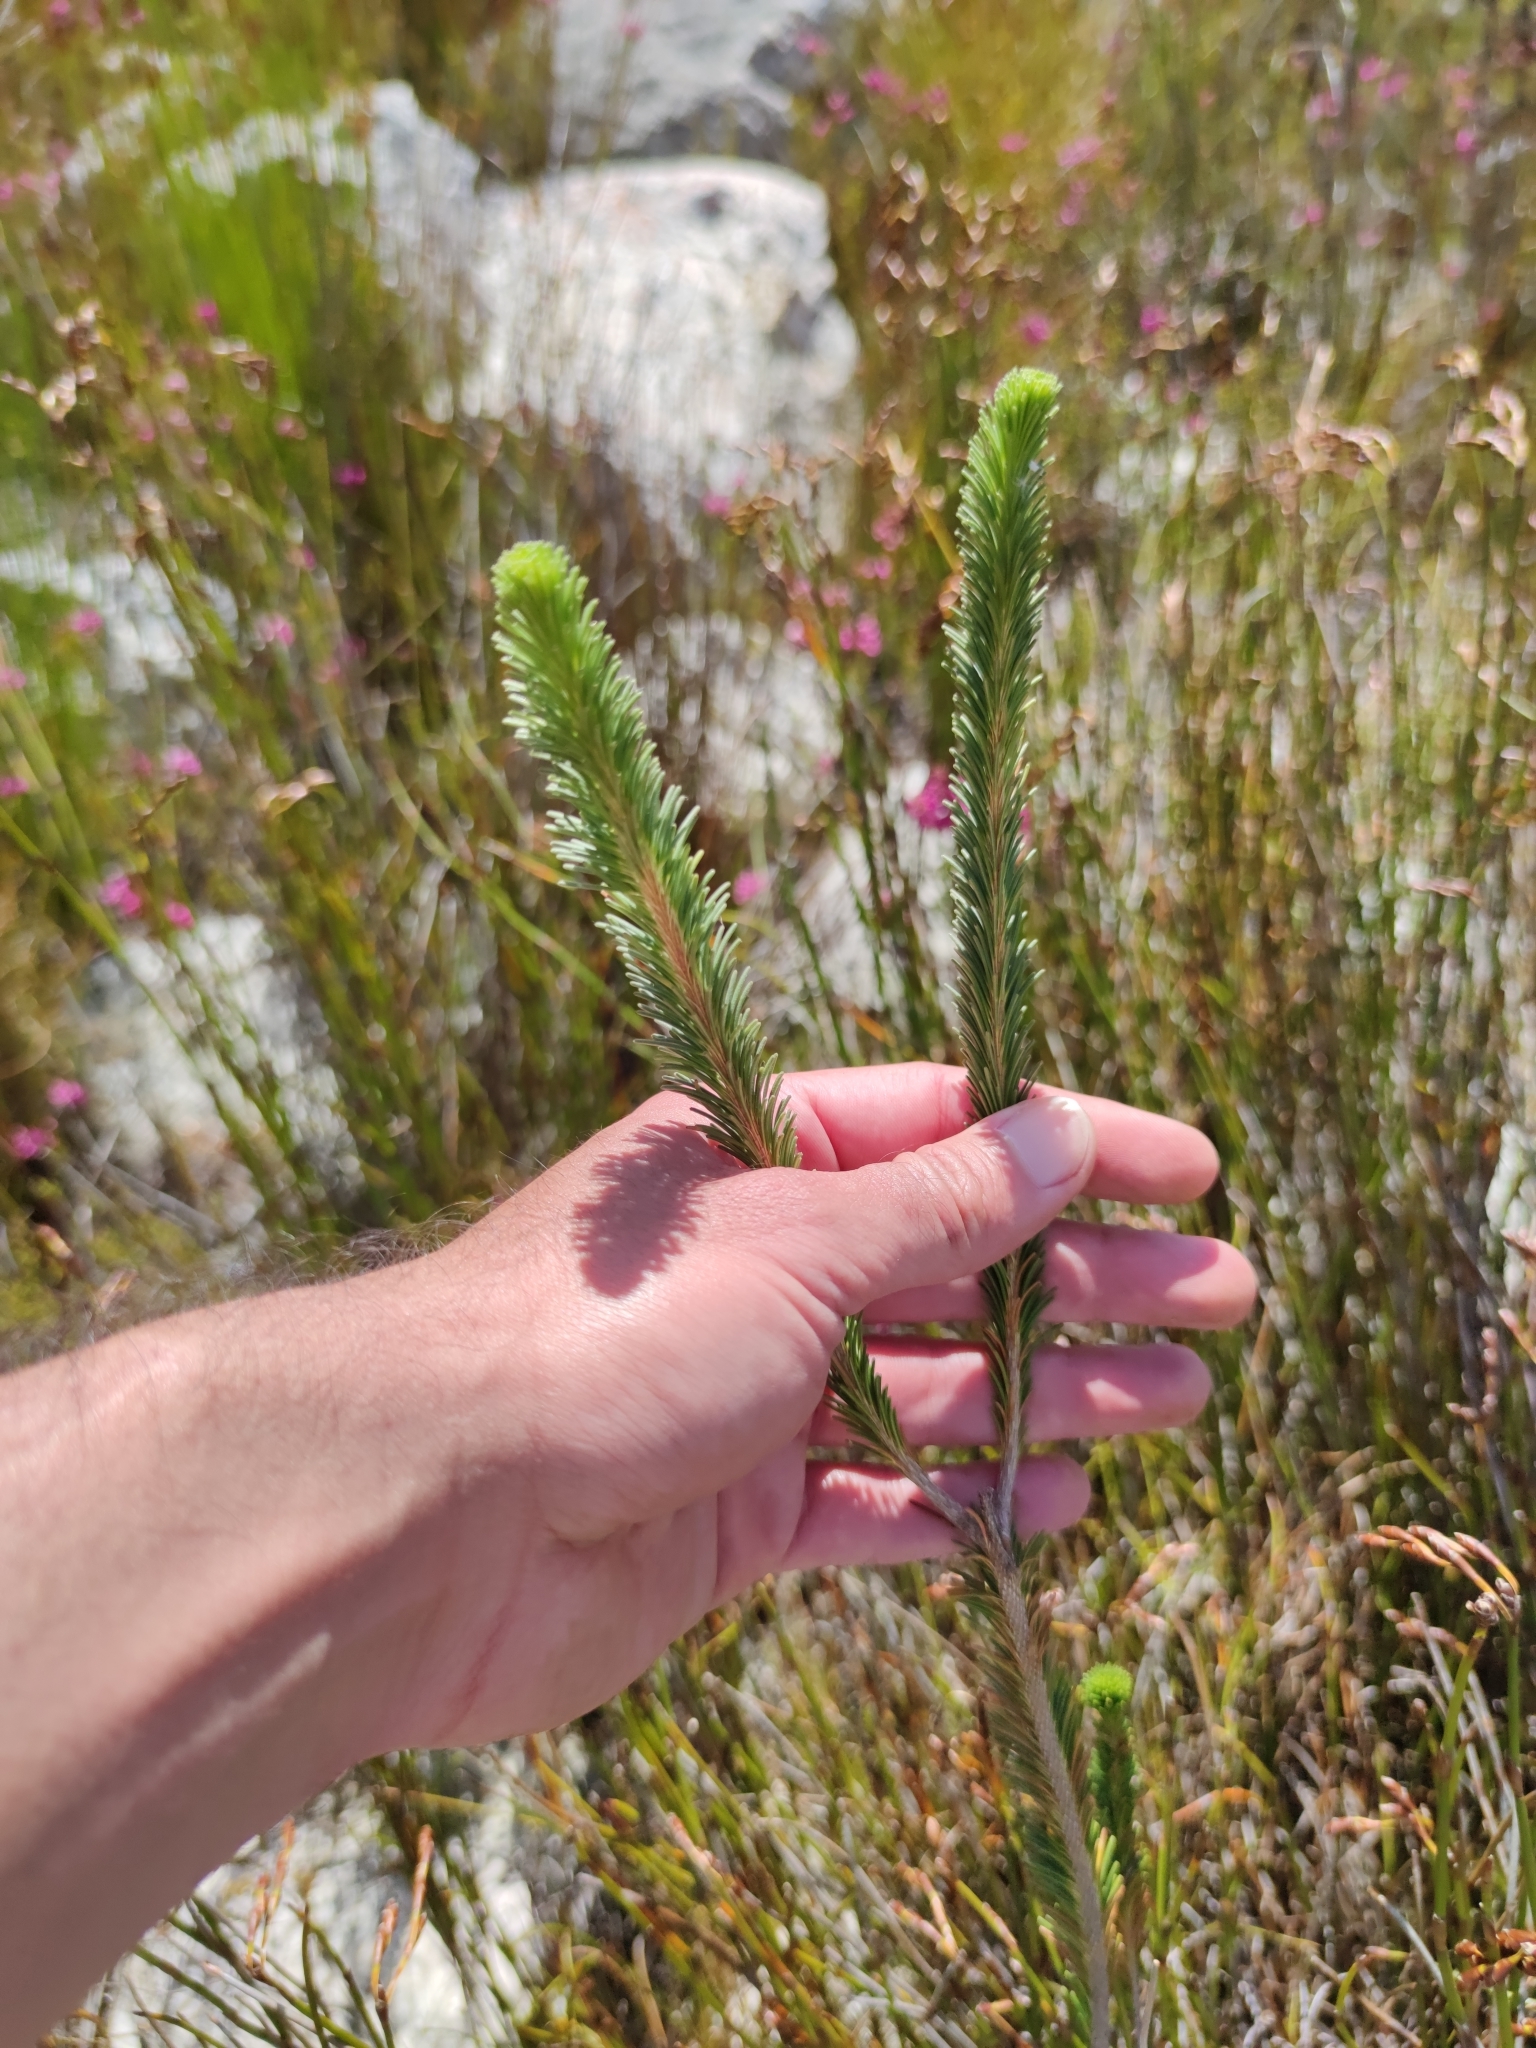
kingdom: Plantae
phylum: Tracheophyta
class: Magnoliopsida
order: Ericales
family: Ericaceae
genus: Erica
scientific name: Erica fascicularis
